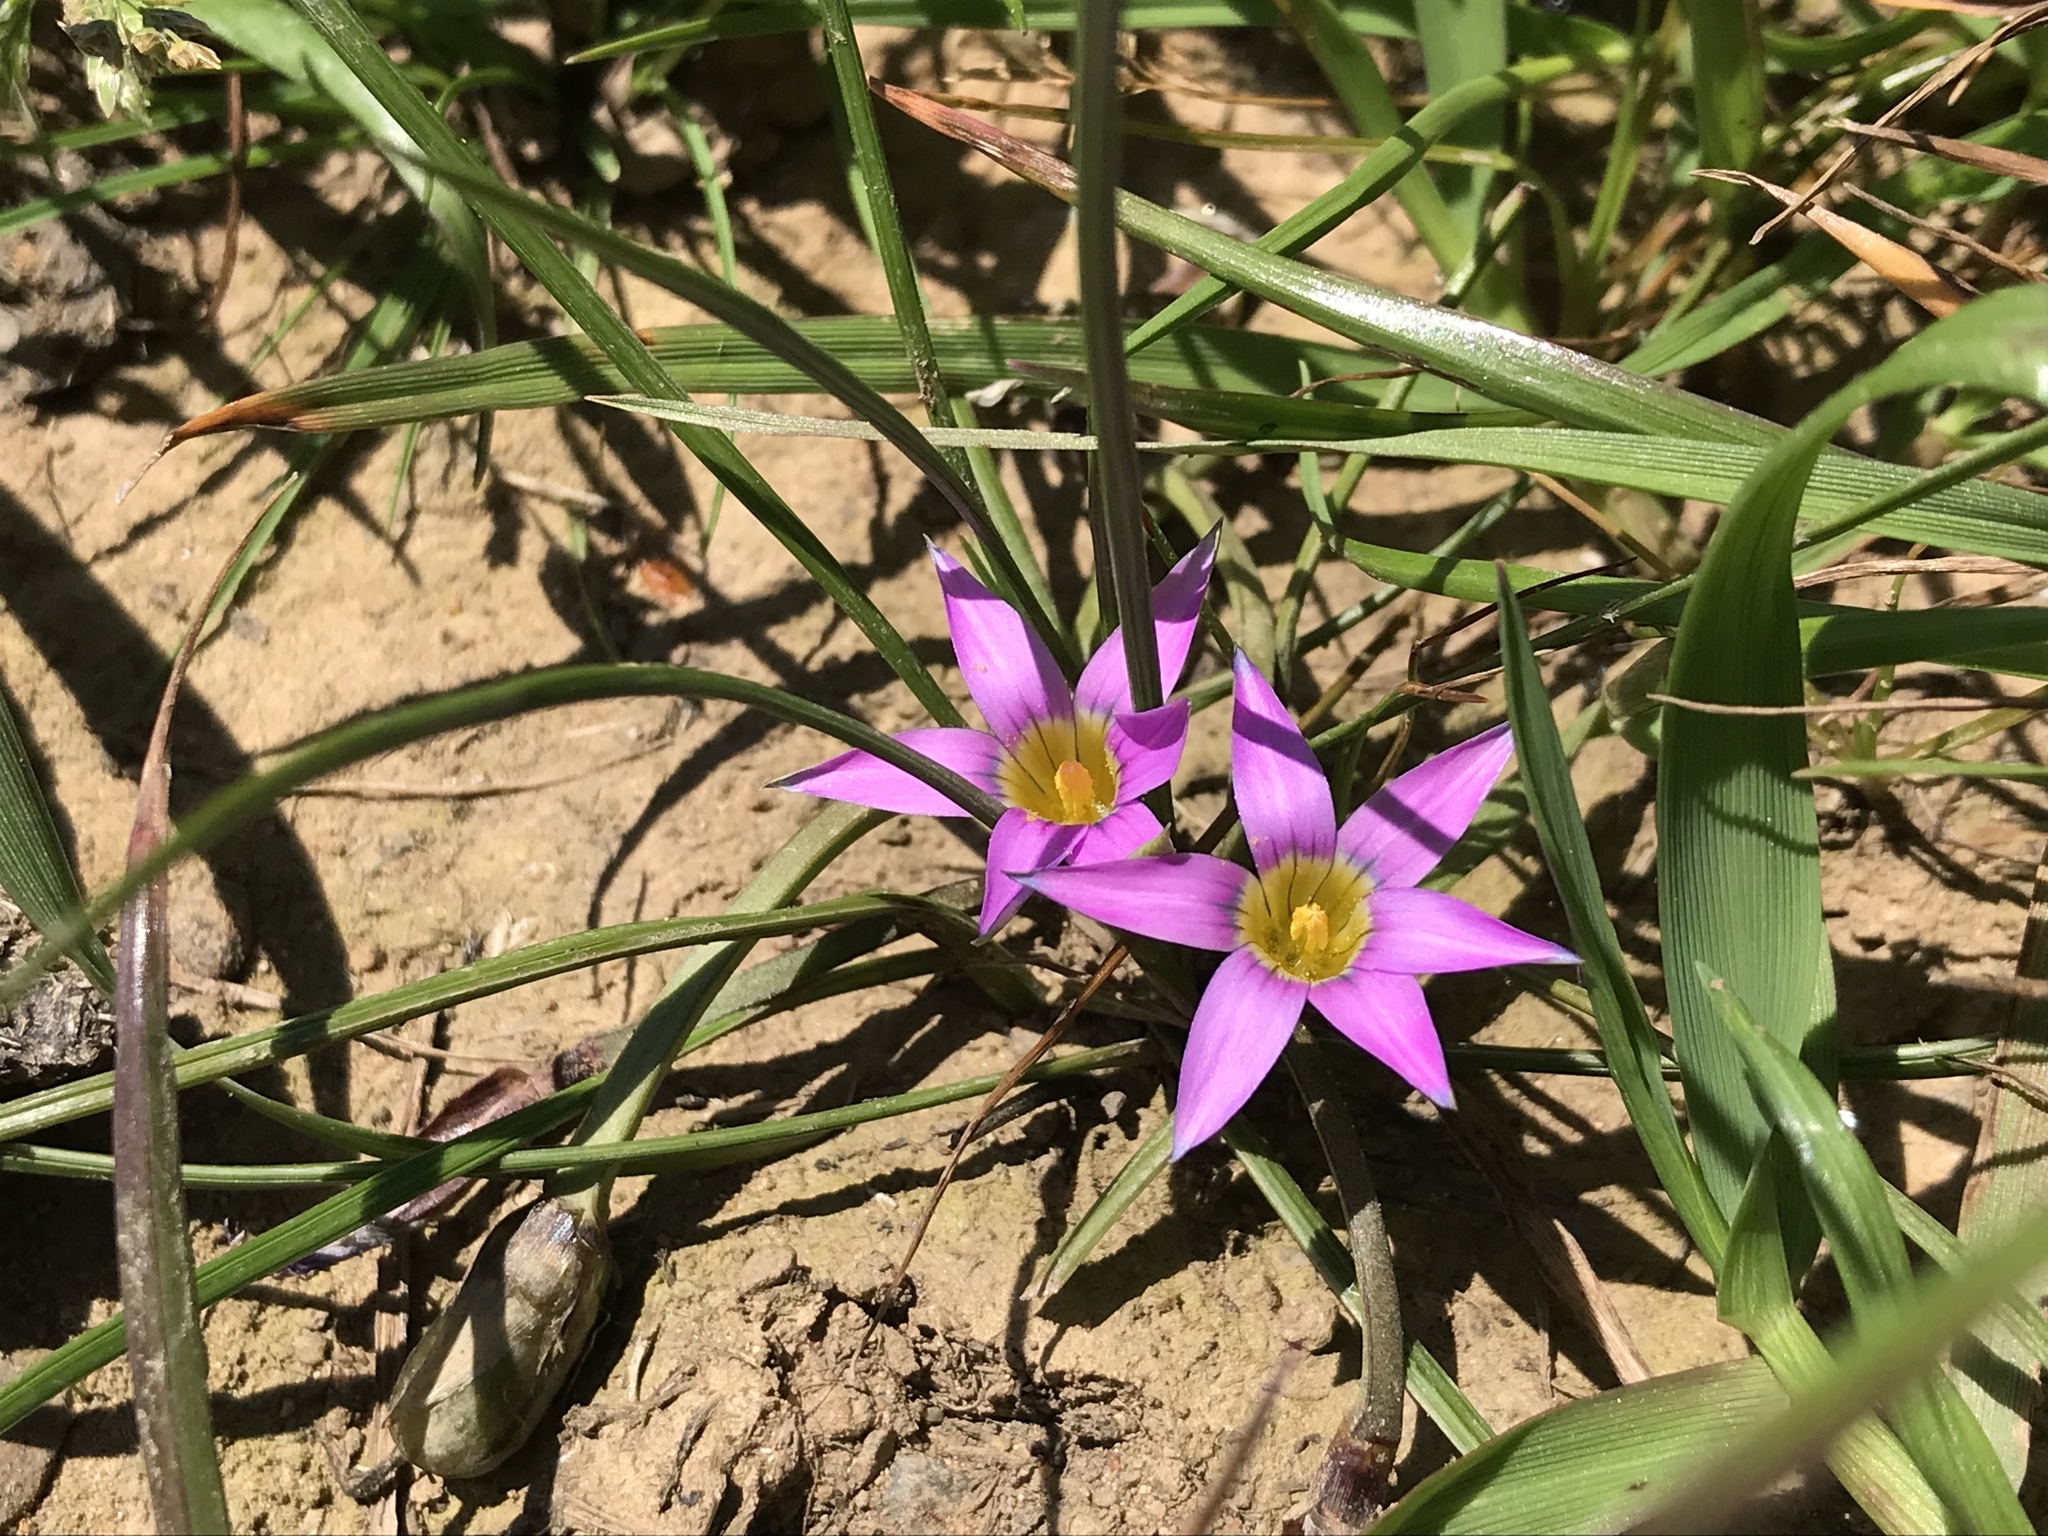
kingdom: Plantae
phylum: Tracheophyta
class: Liliopsida
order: Asparagales
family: Iridaceae
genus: Romulea
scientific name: Romulea rosea
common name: Oniongrass
